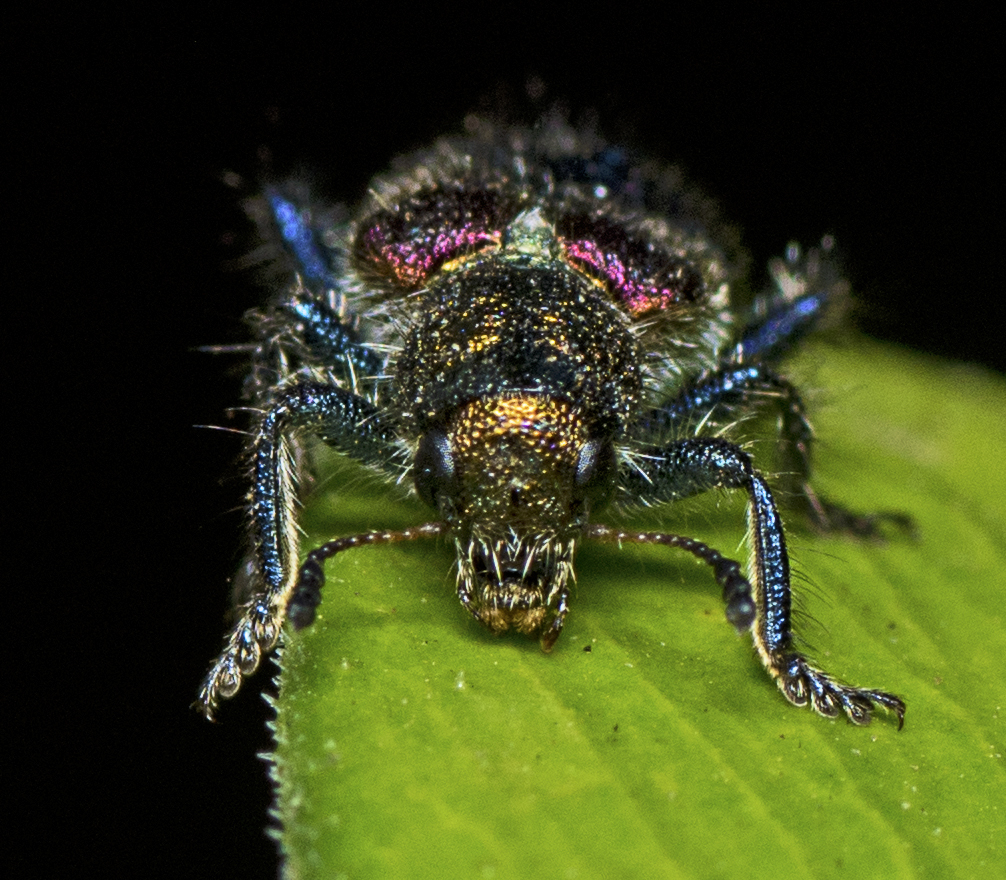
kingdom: Animalia
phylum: Arthropoda
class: Insecta
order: Coleoptera
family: Cleridae
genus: Phlogistus
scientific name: Phlogistus
